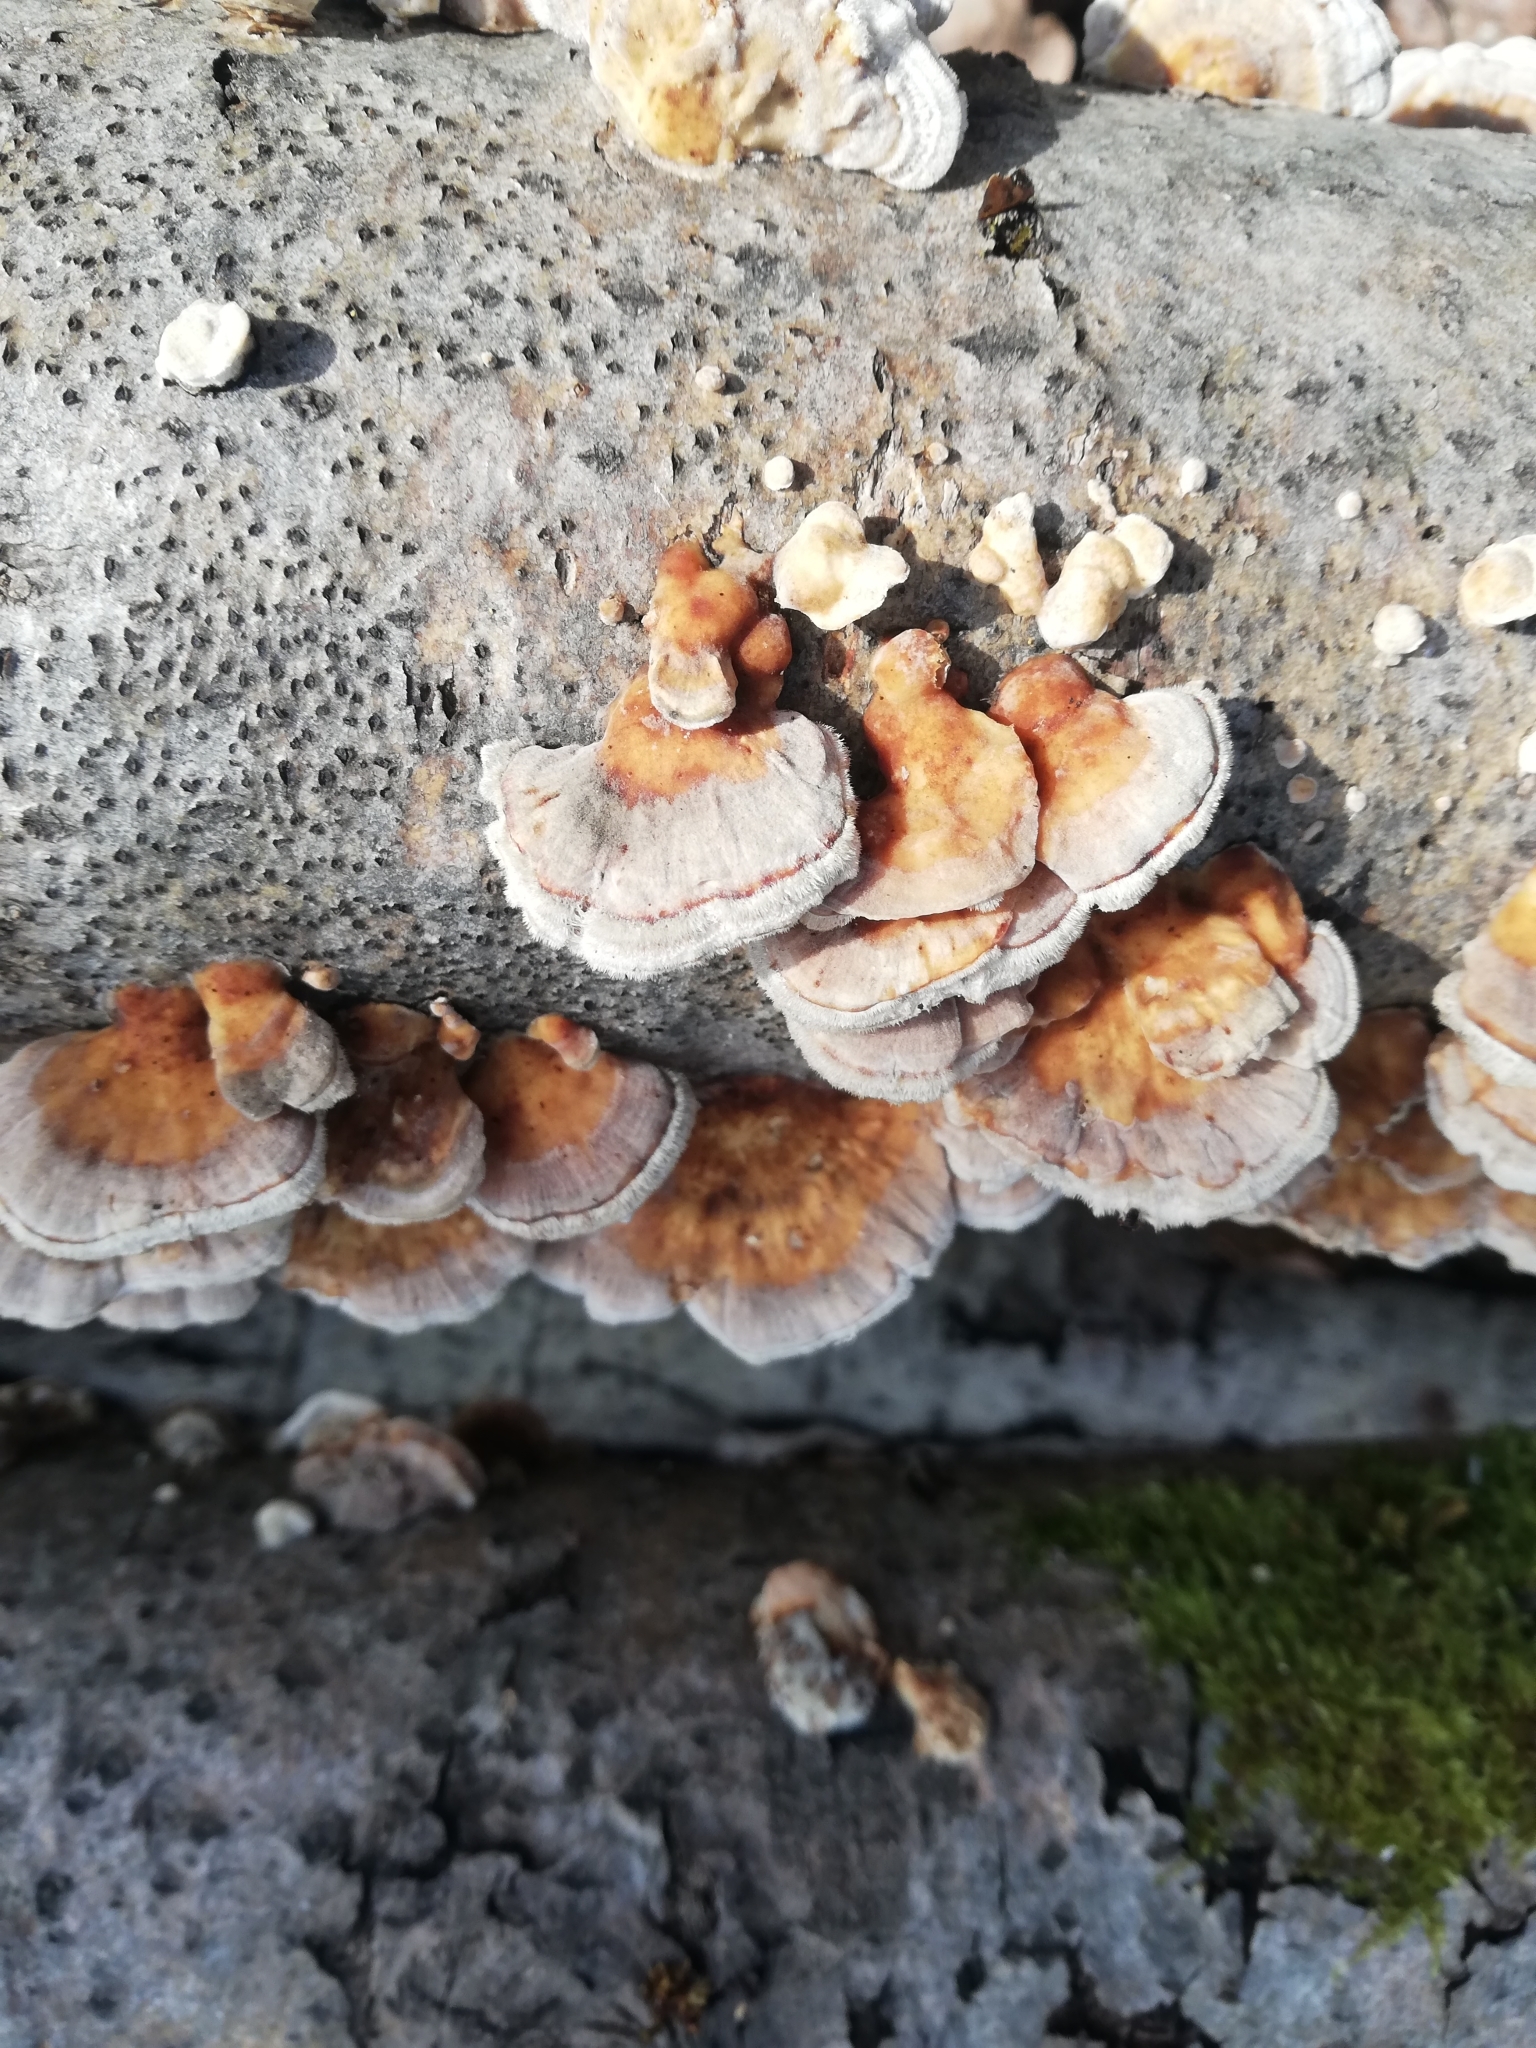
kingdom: Fungi
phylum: Basidiomycota
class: Agaricomycetes
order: Polyporales
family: Polyporaceae
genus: Trametes
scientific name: Trametes ochracea
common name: Ochre bracket
